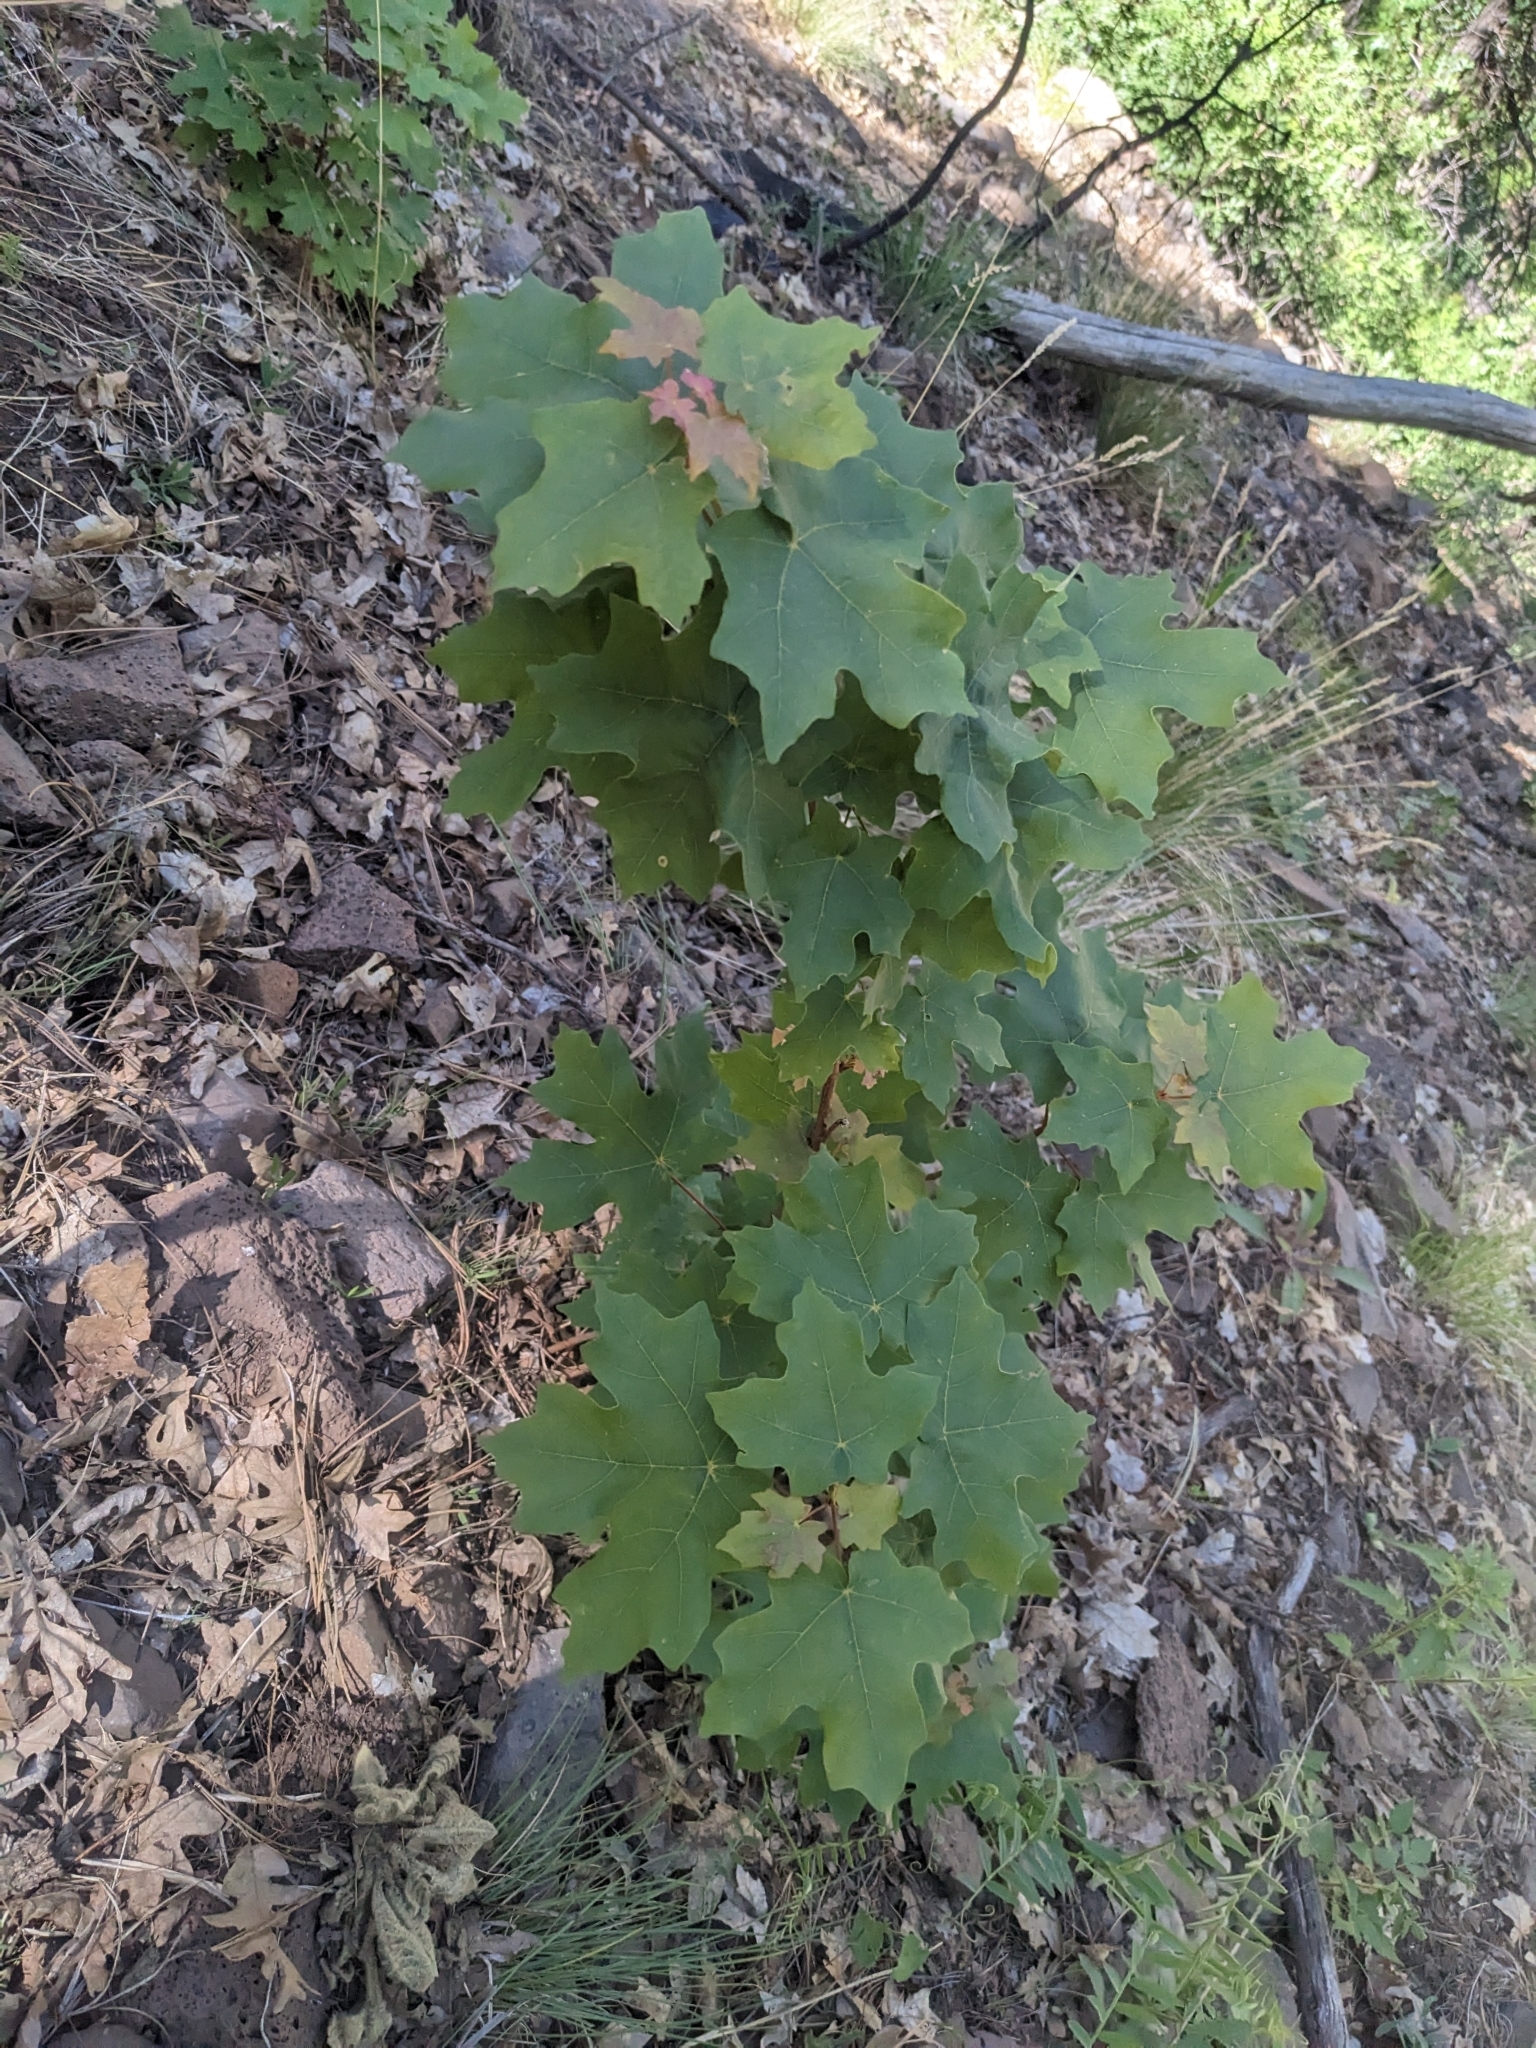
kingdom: Plantae
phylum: Tracheophyta
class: Magnoliopsida
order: Sapindales
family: Sapindaceae
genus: Acer
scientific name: Acer grandidentatum
